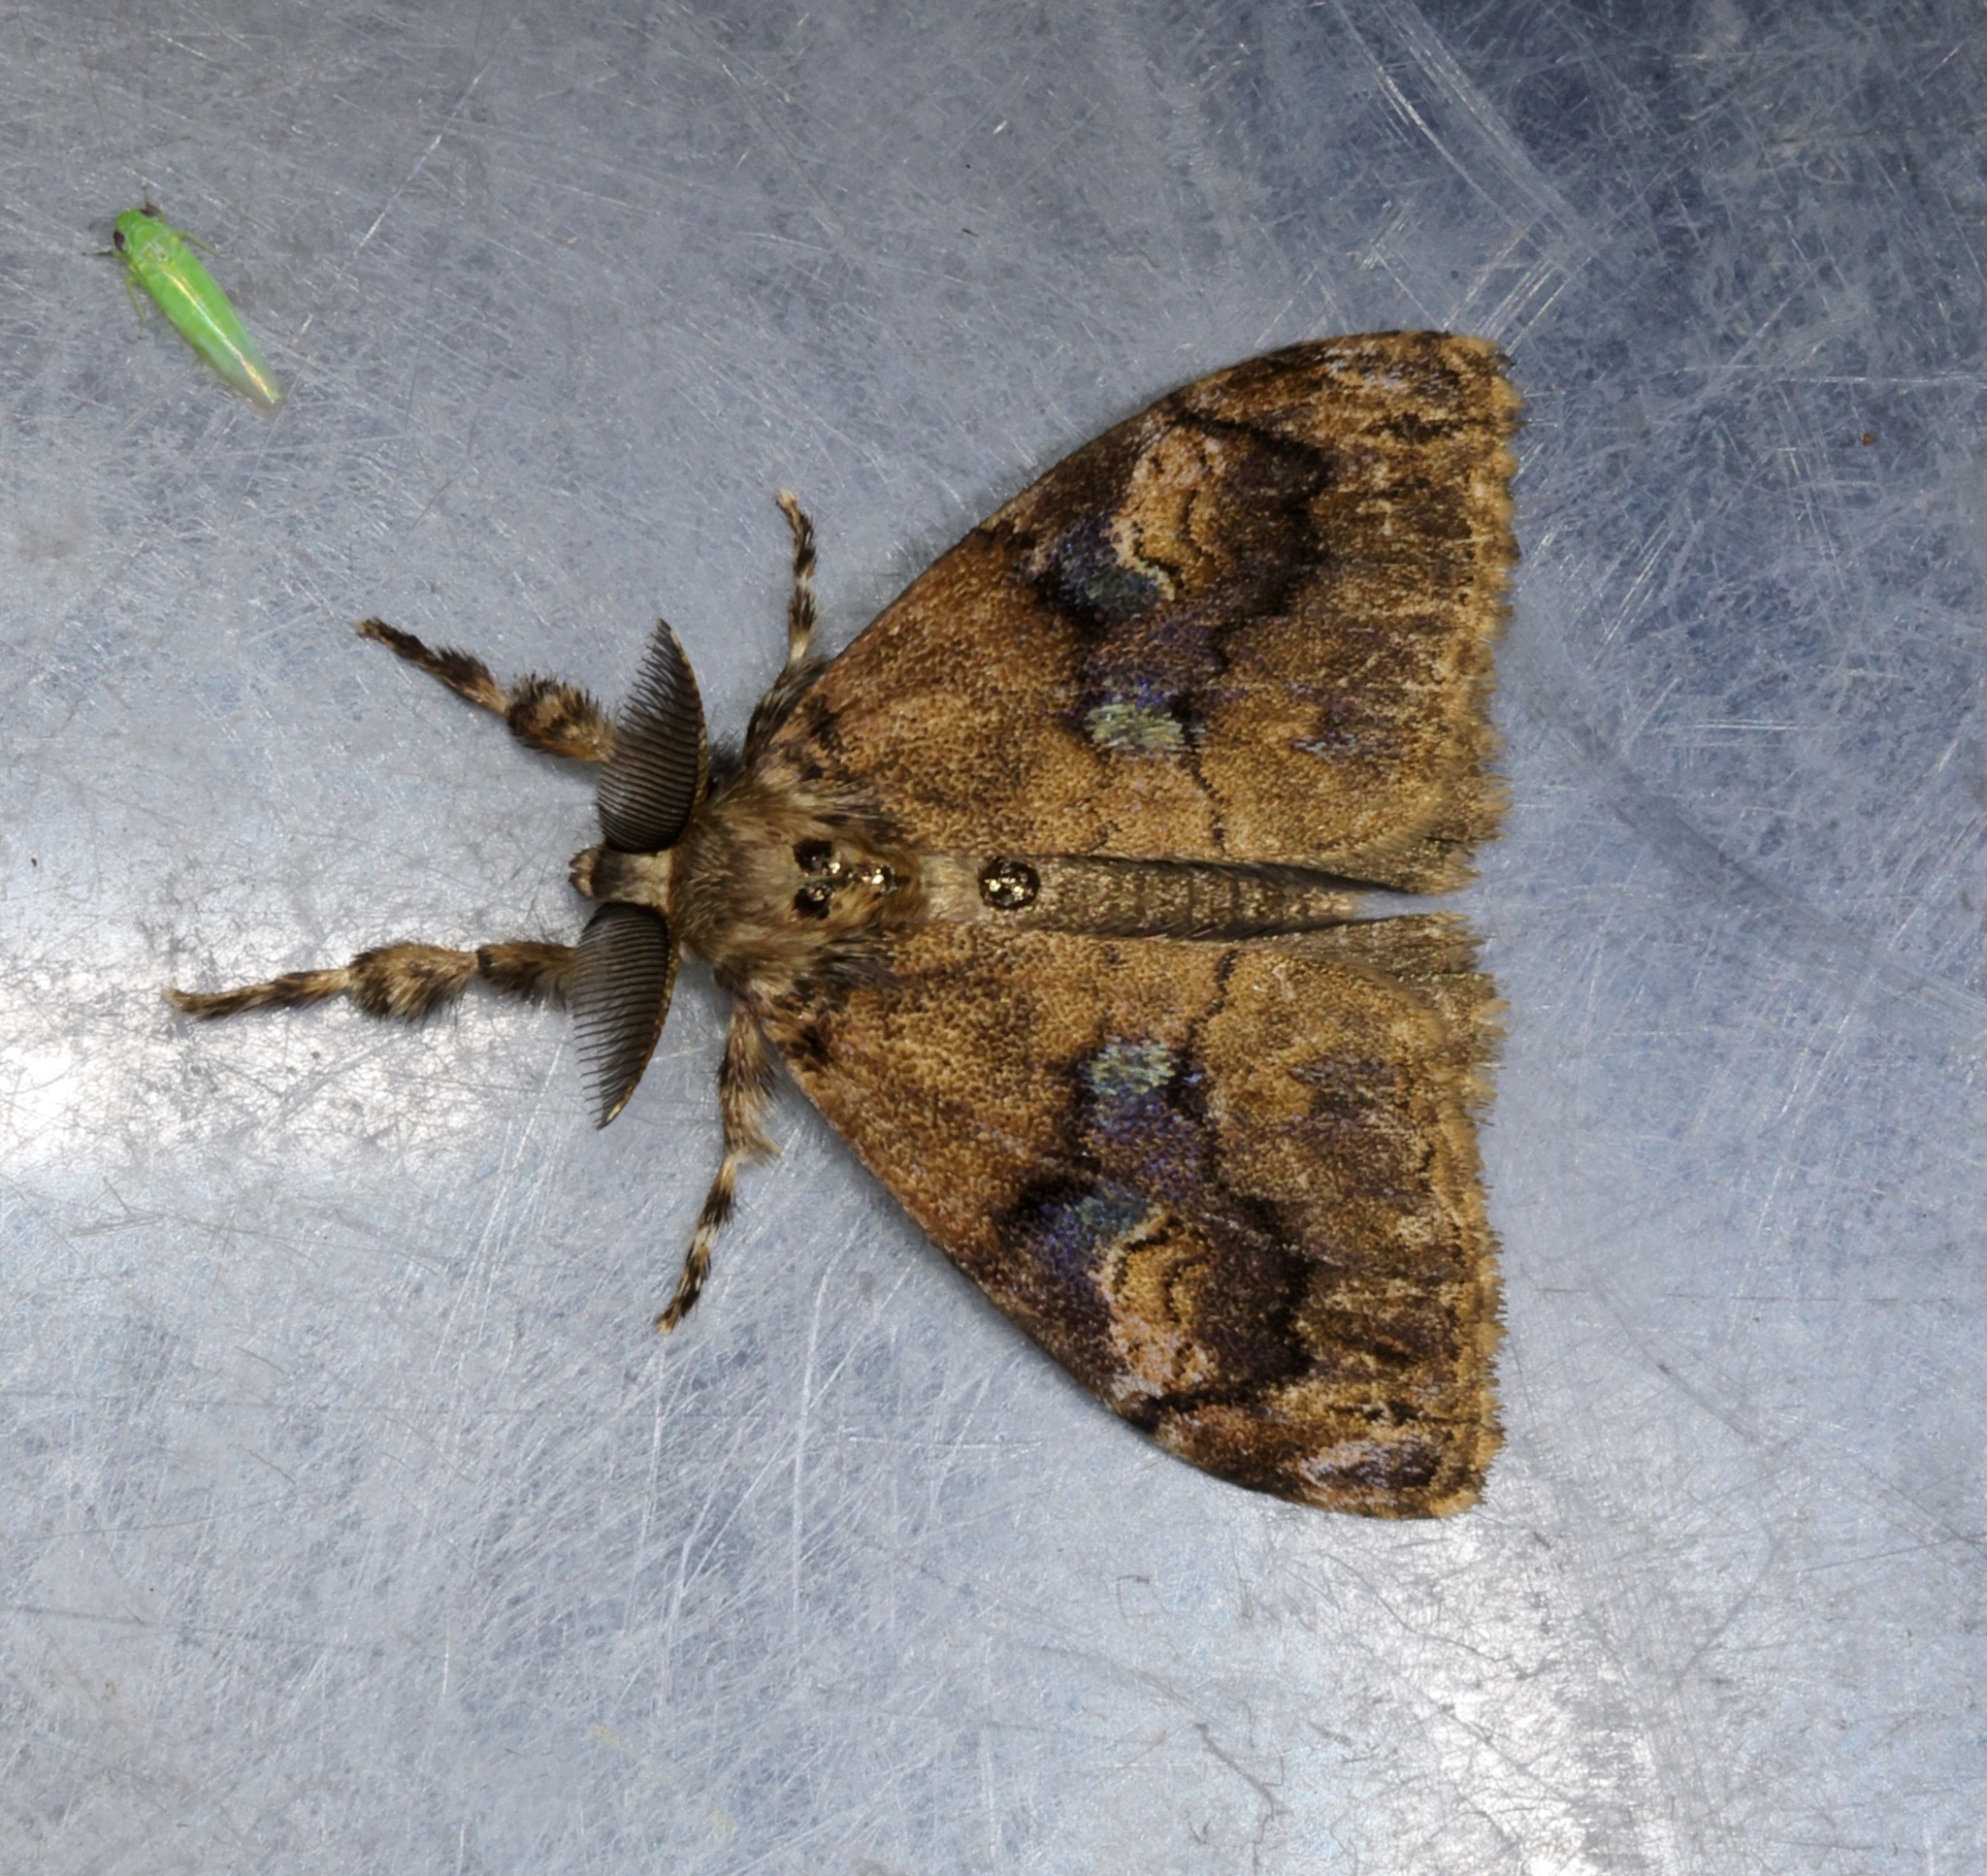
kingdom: Animalia
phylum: Arthropoda
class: Insecta
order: Lepidoptera
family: Erebidae
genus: Orgyia
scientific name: Orgyia postica
